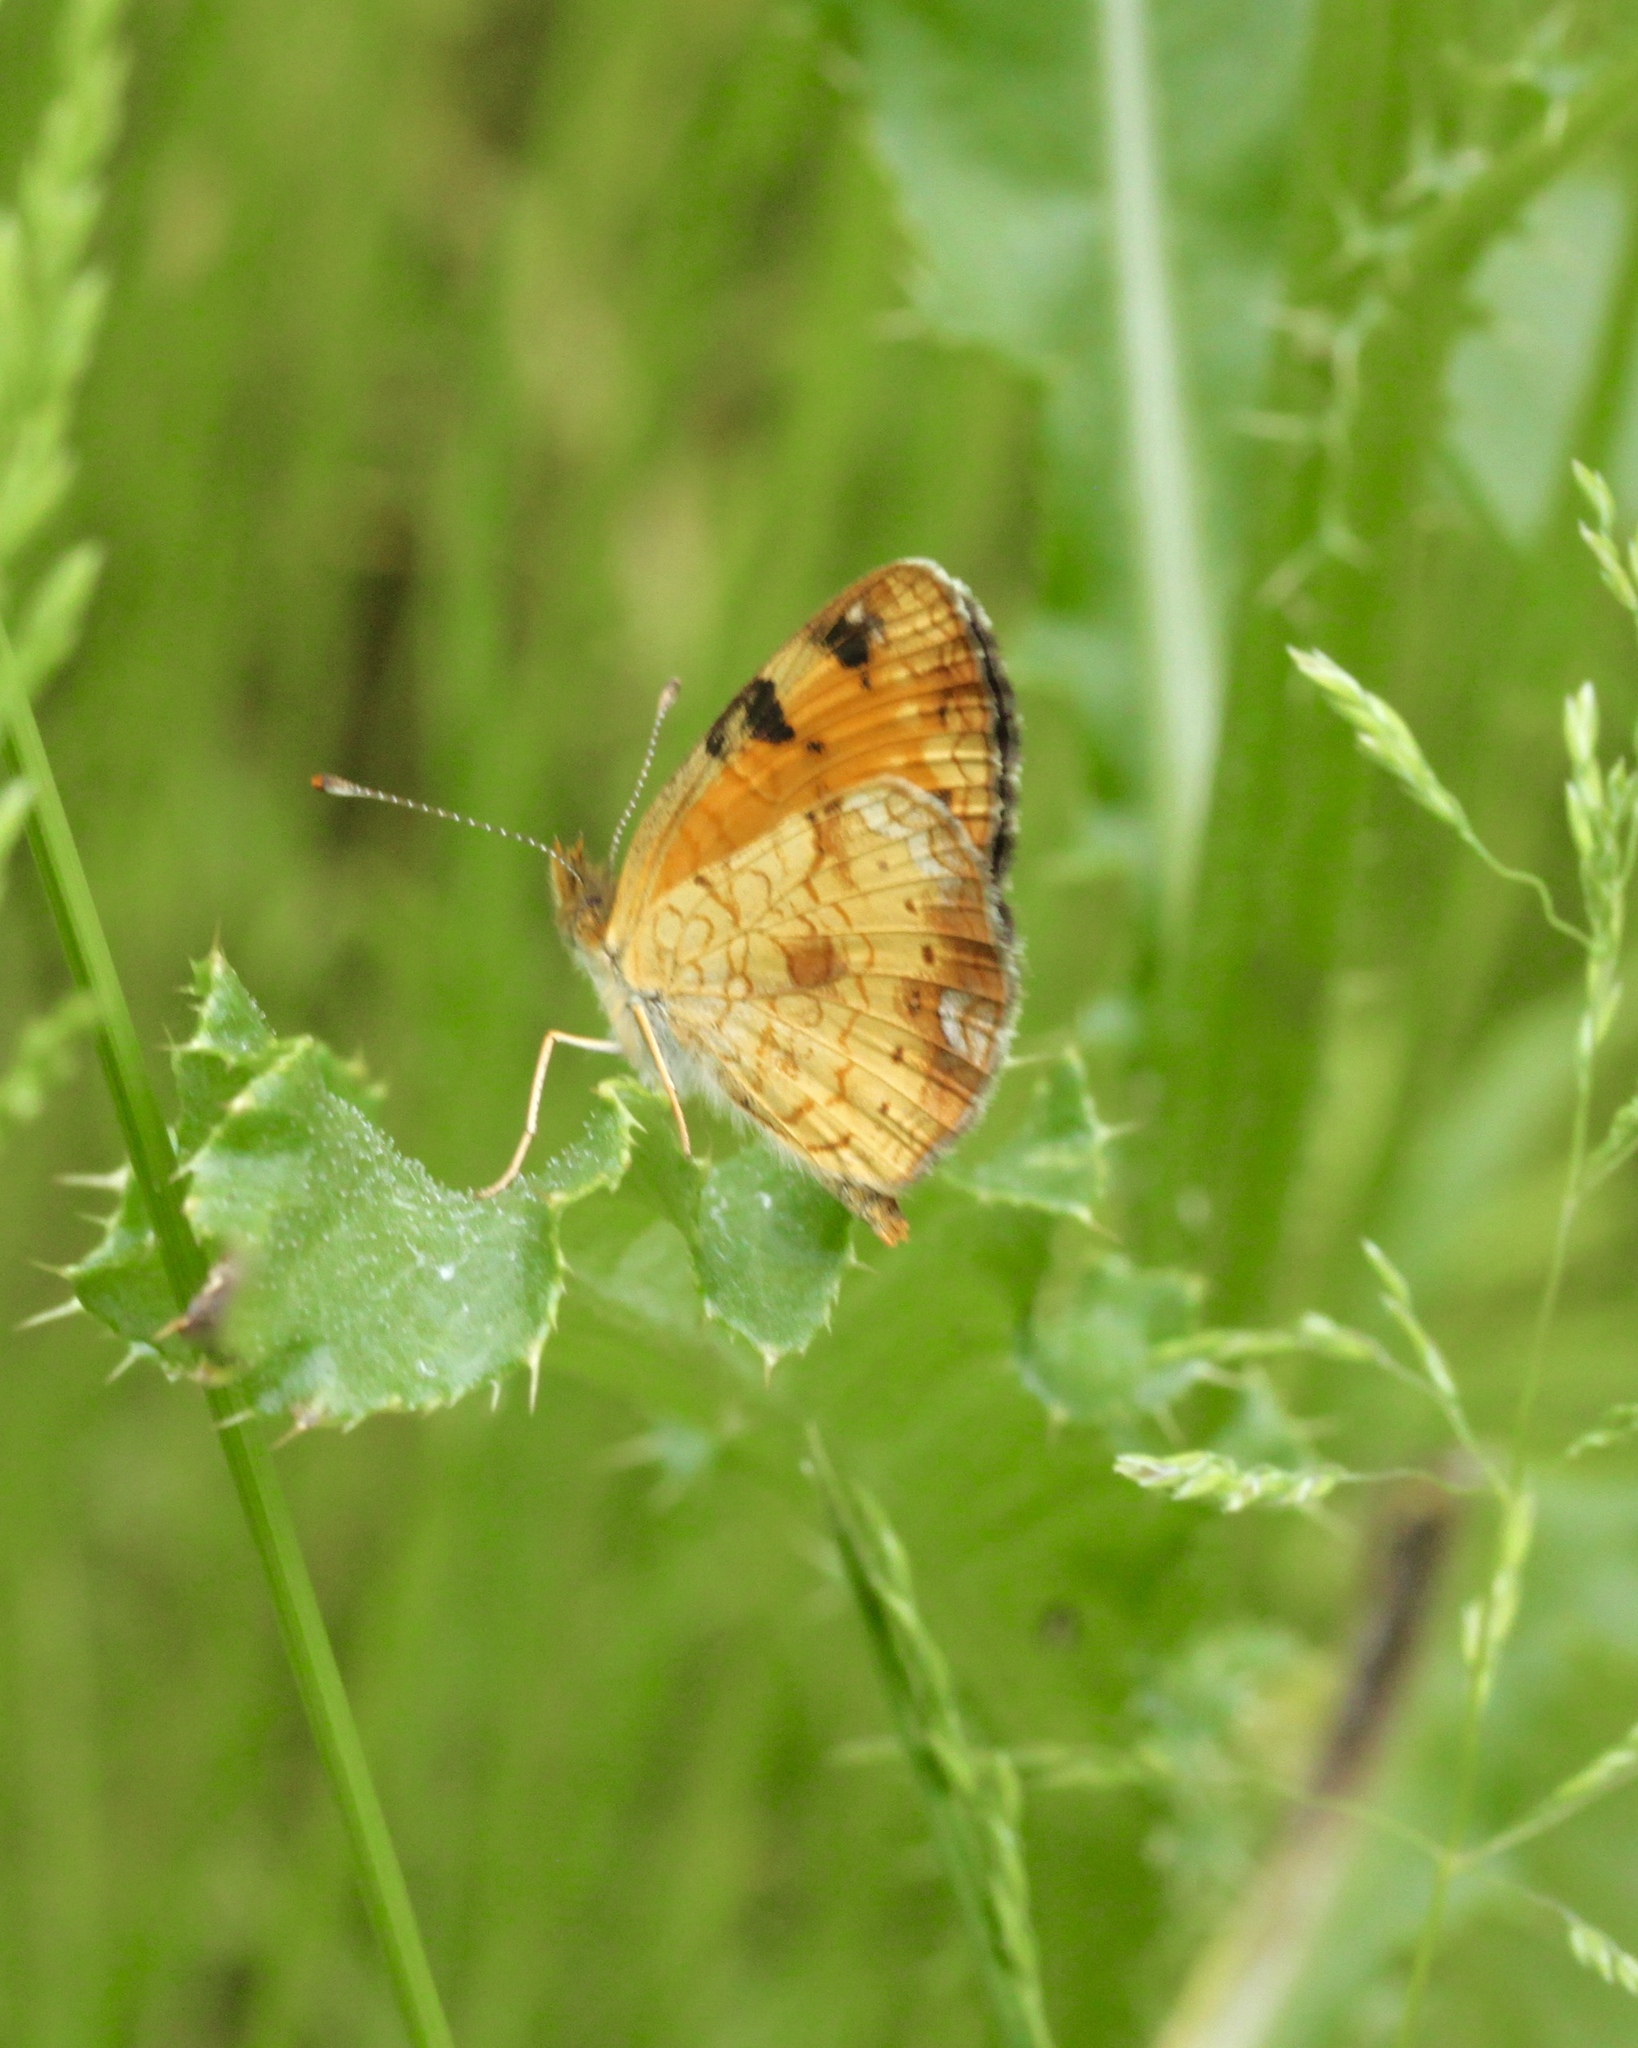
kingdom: Animalia
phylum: Arthropoda
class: Insecta
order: Lepidoptera
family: Nymphalidae
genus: Phyciodes
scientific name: Phyciodes tharos
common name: Pearl crescent
